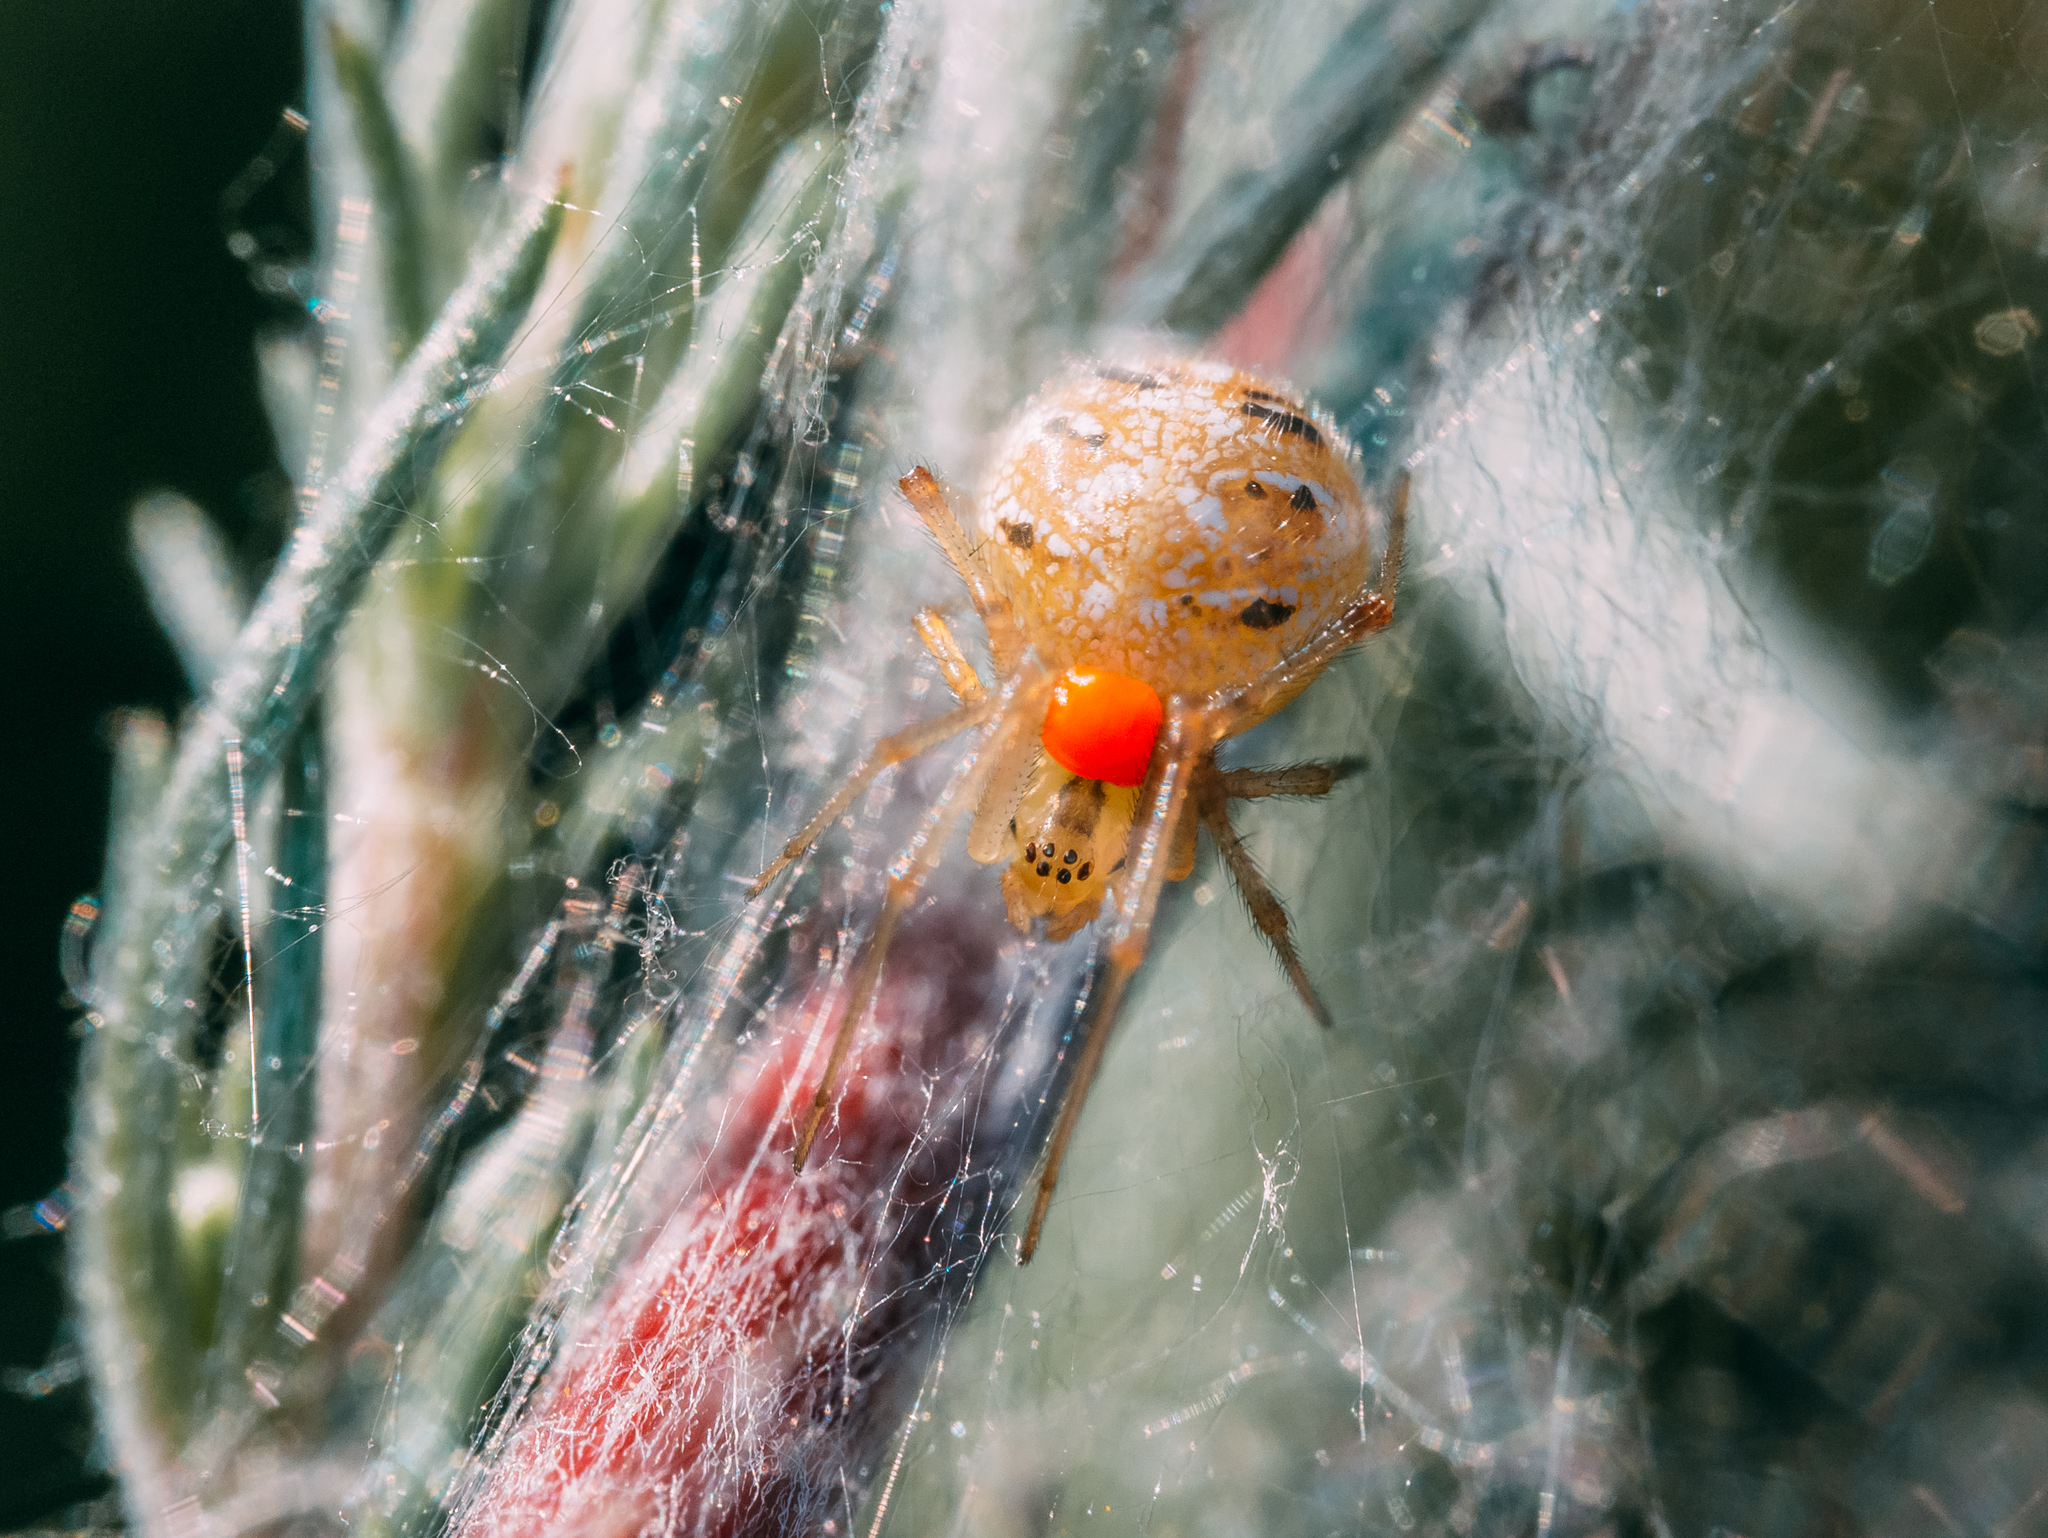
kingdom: Animalia
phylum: Arthropoda
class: Arachnida
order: Araneae
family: Theridiidae
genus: Phylloneta
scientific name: Phylloneta impressa
